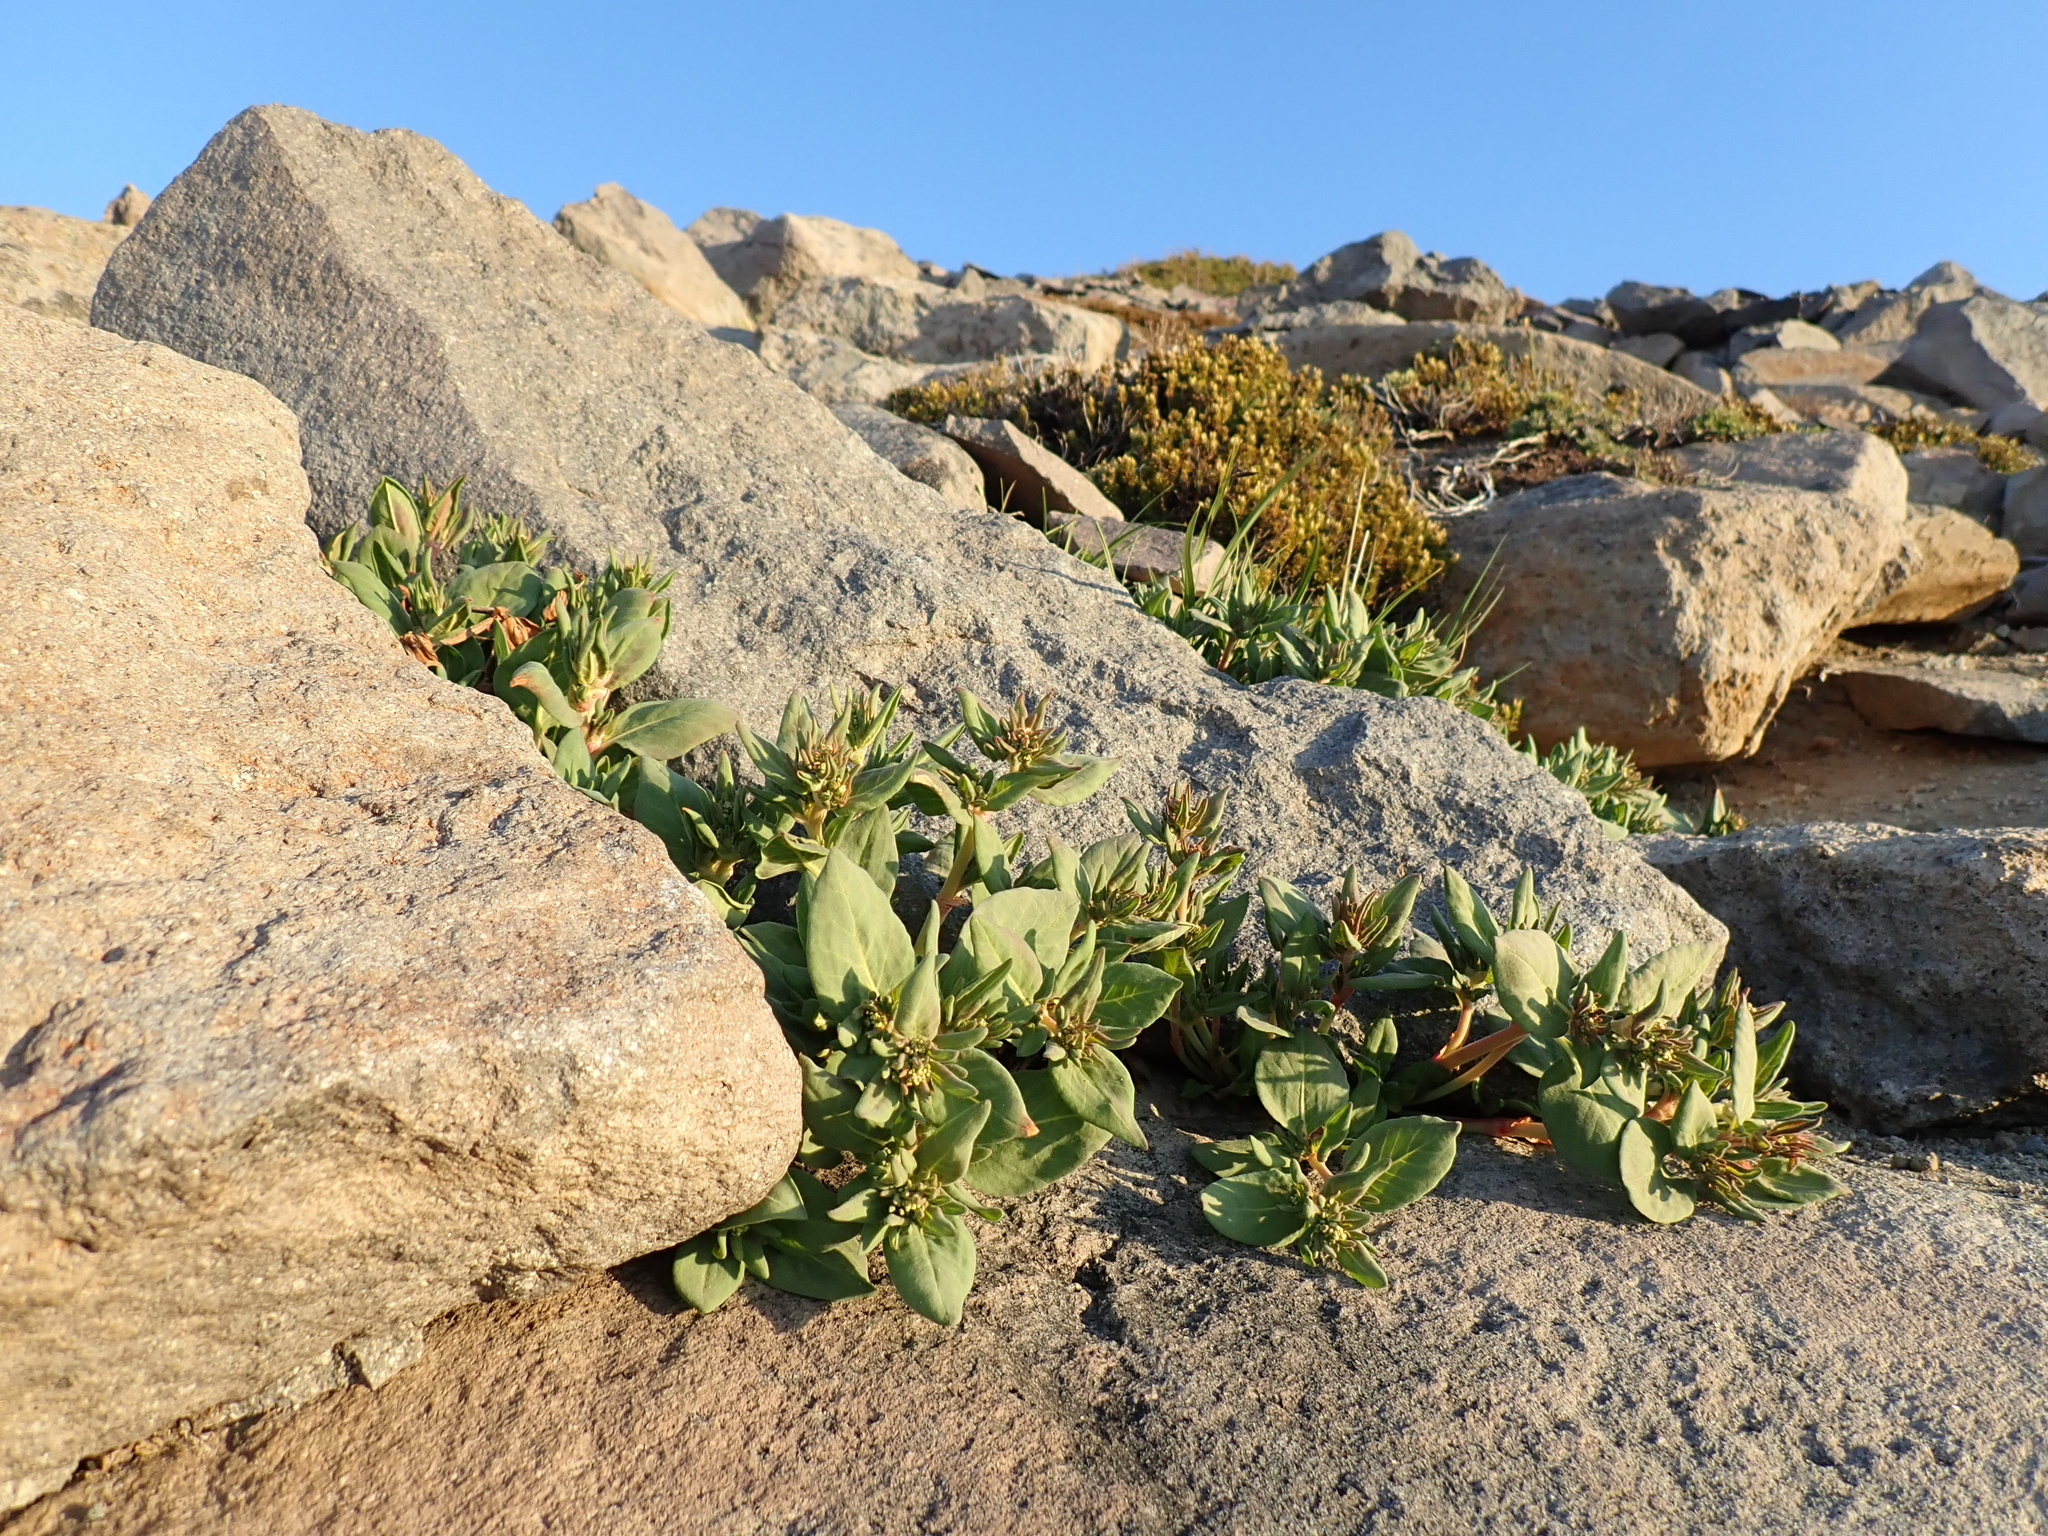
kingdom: Plantae
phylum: Tracheophyta
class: Magnoliopsida
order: Caryophyllales
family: Polygonaceae
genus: Koenigia
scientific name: Koenigia davisiae
